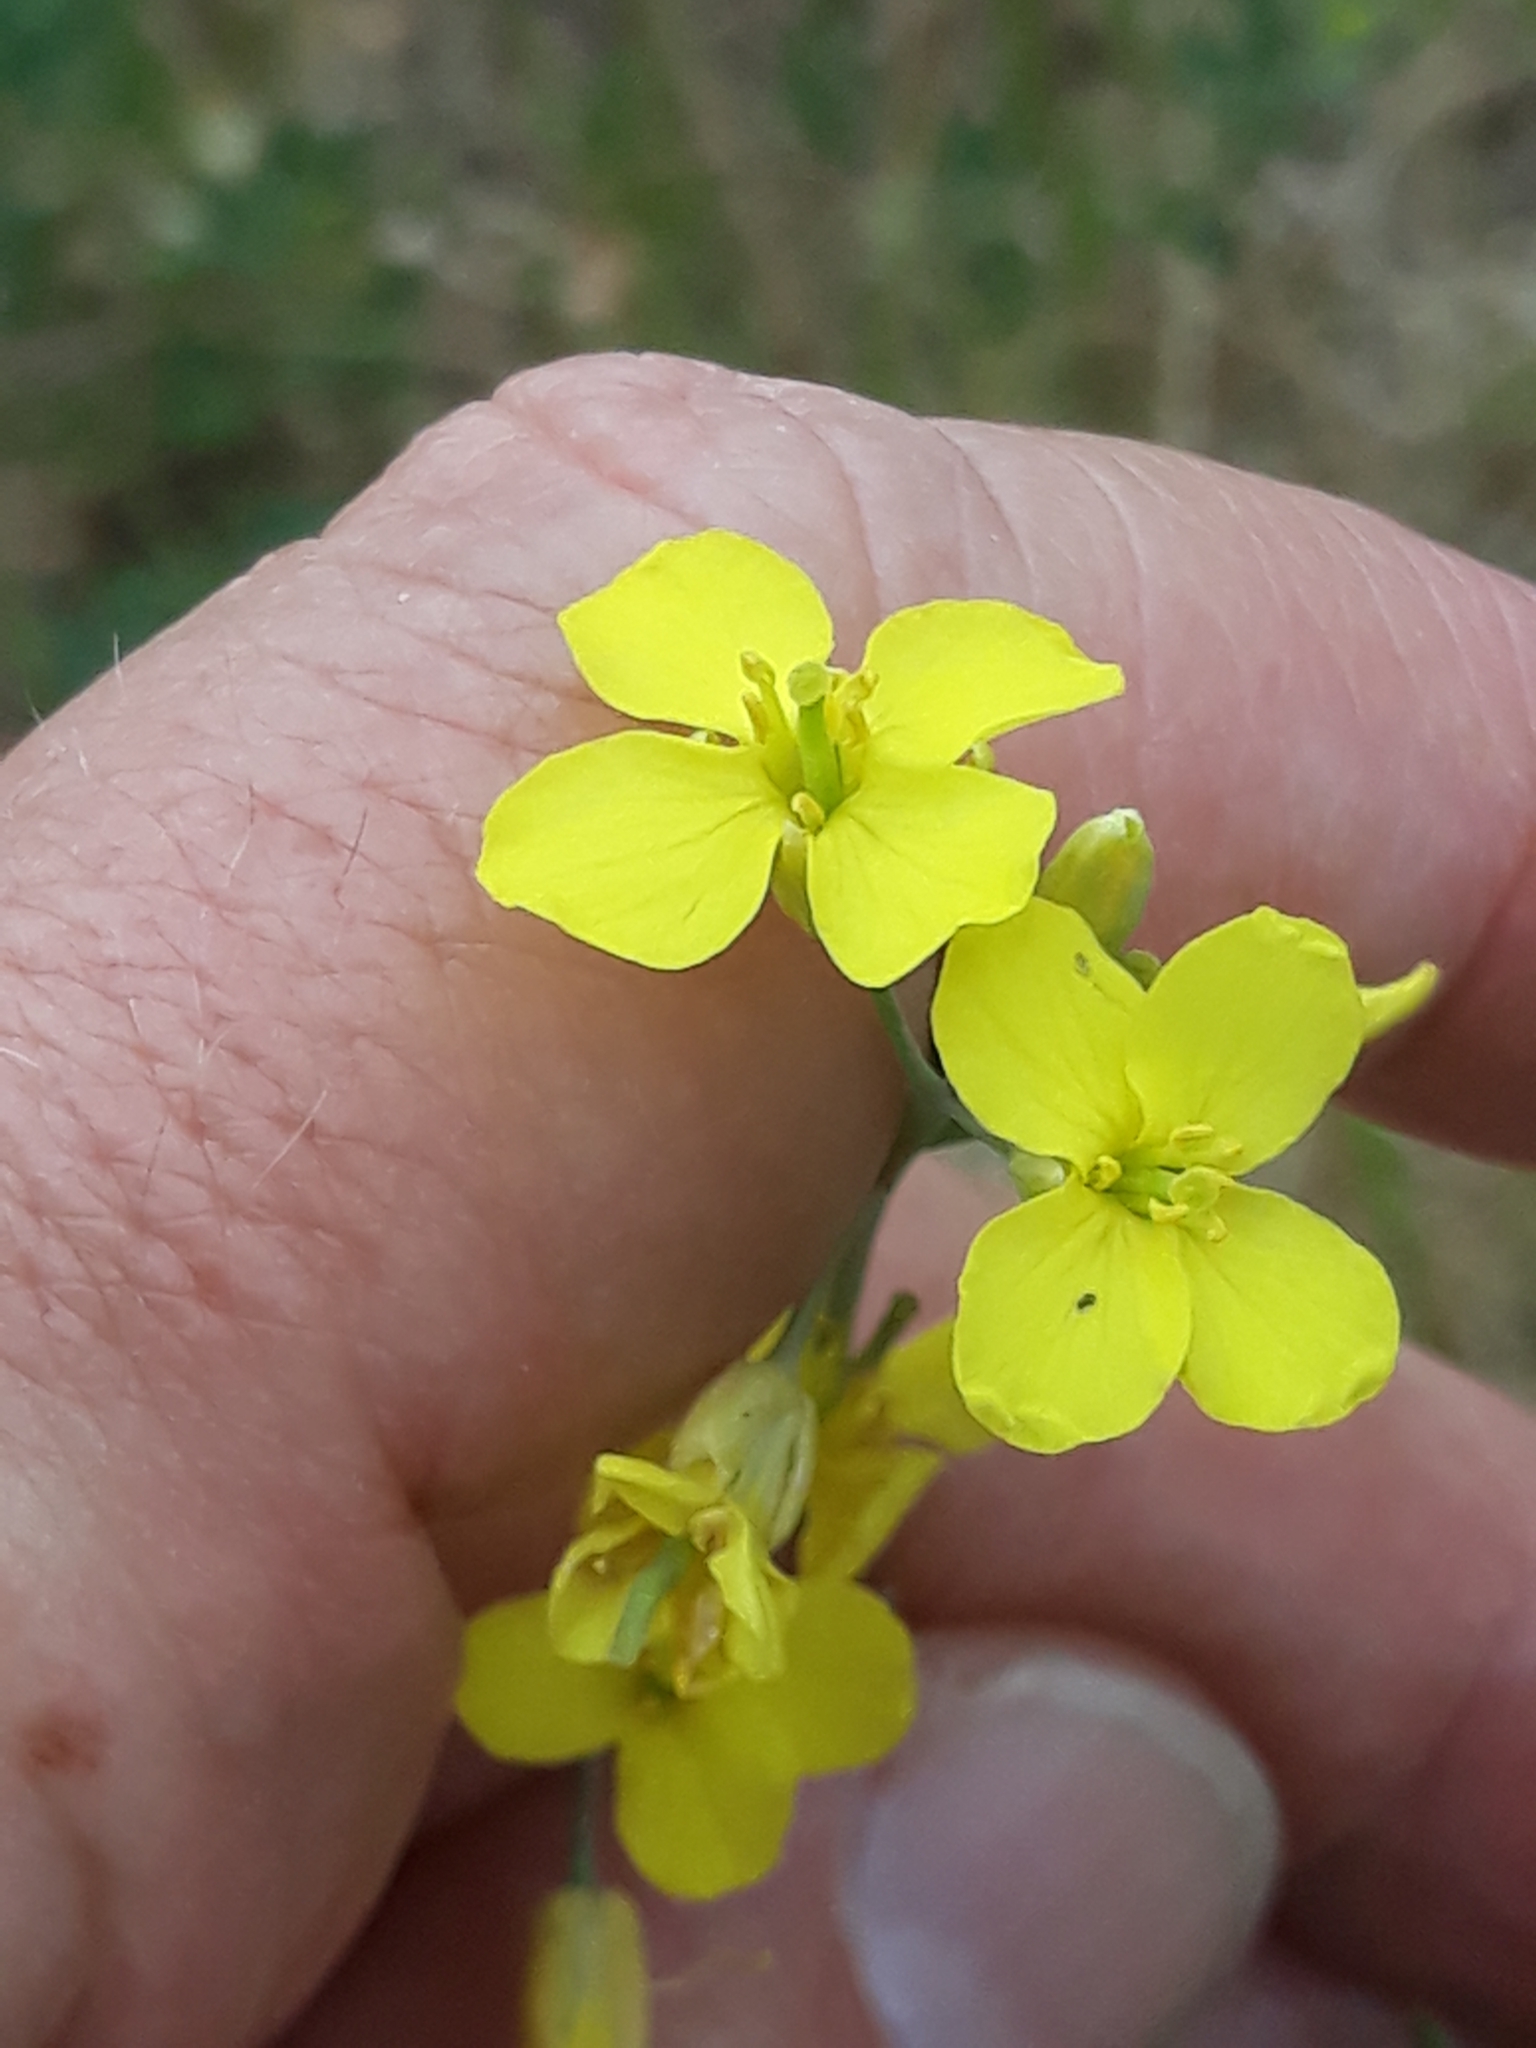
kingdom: Plantae
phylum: Tracheophyta
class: Magnoliopsida
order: Brassicales
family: Brassicaceae
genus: Brassica
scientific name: Brassica napus
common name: Rape
